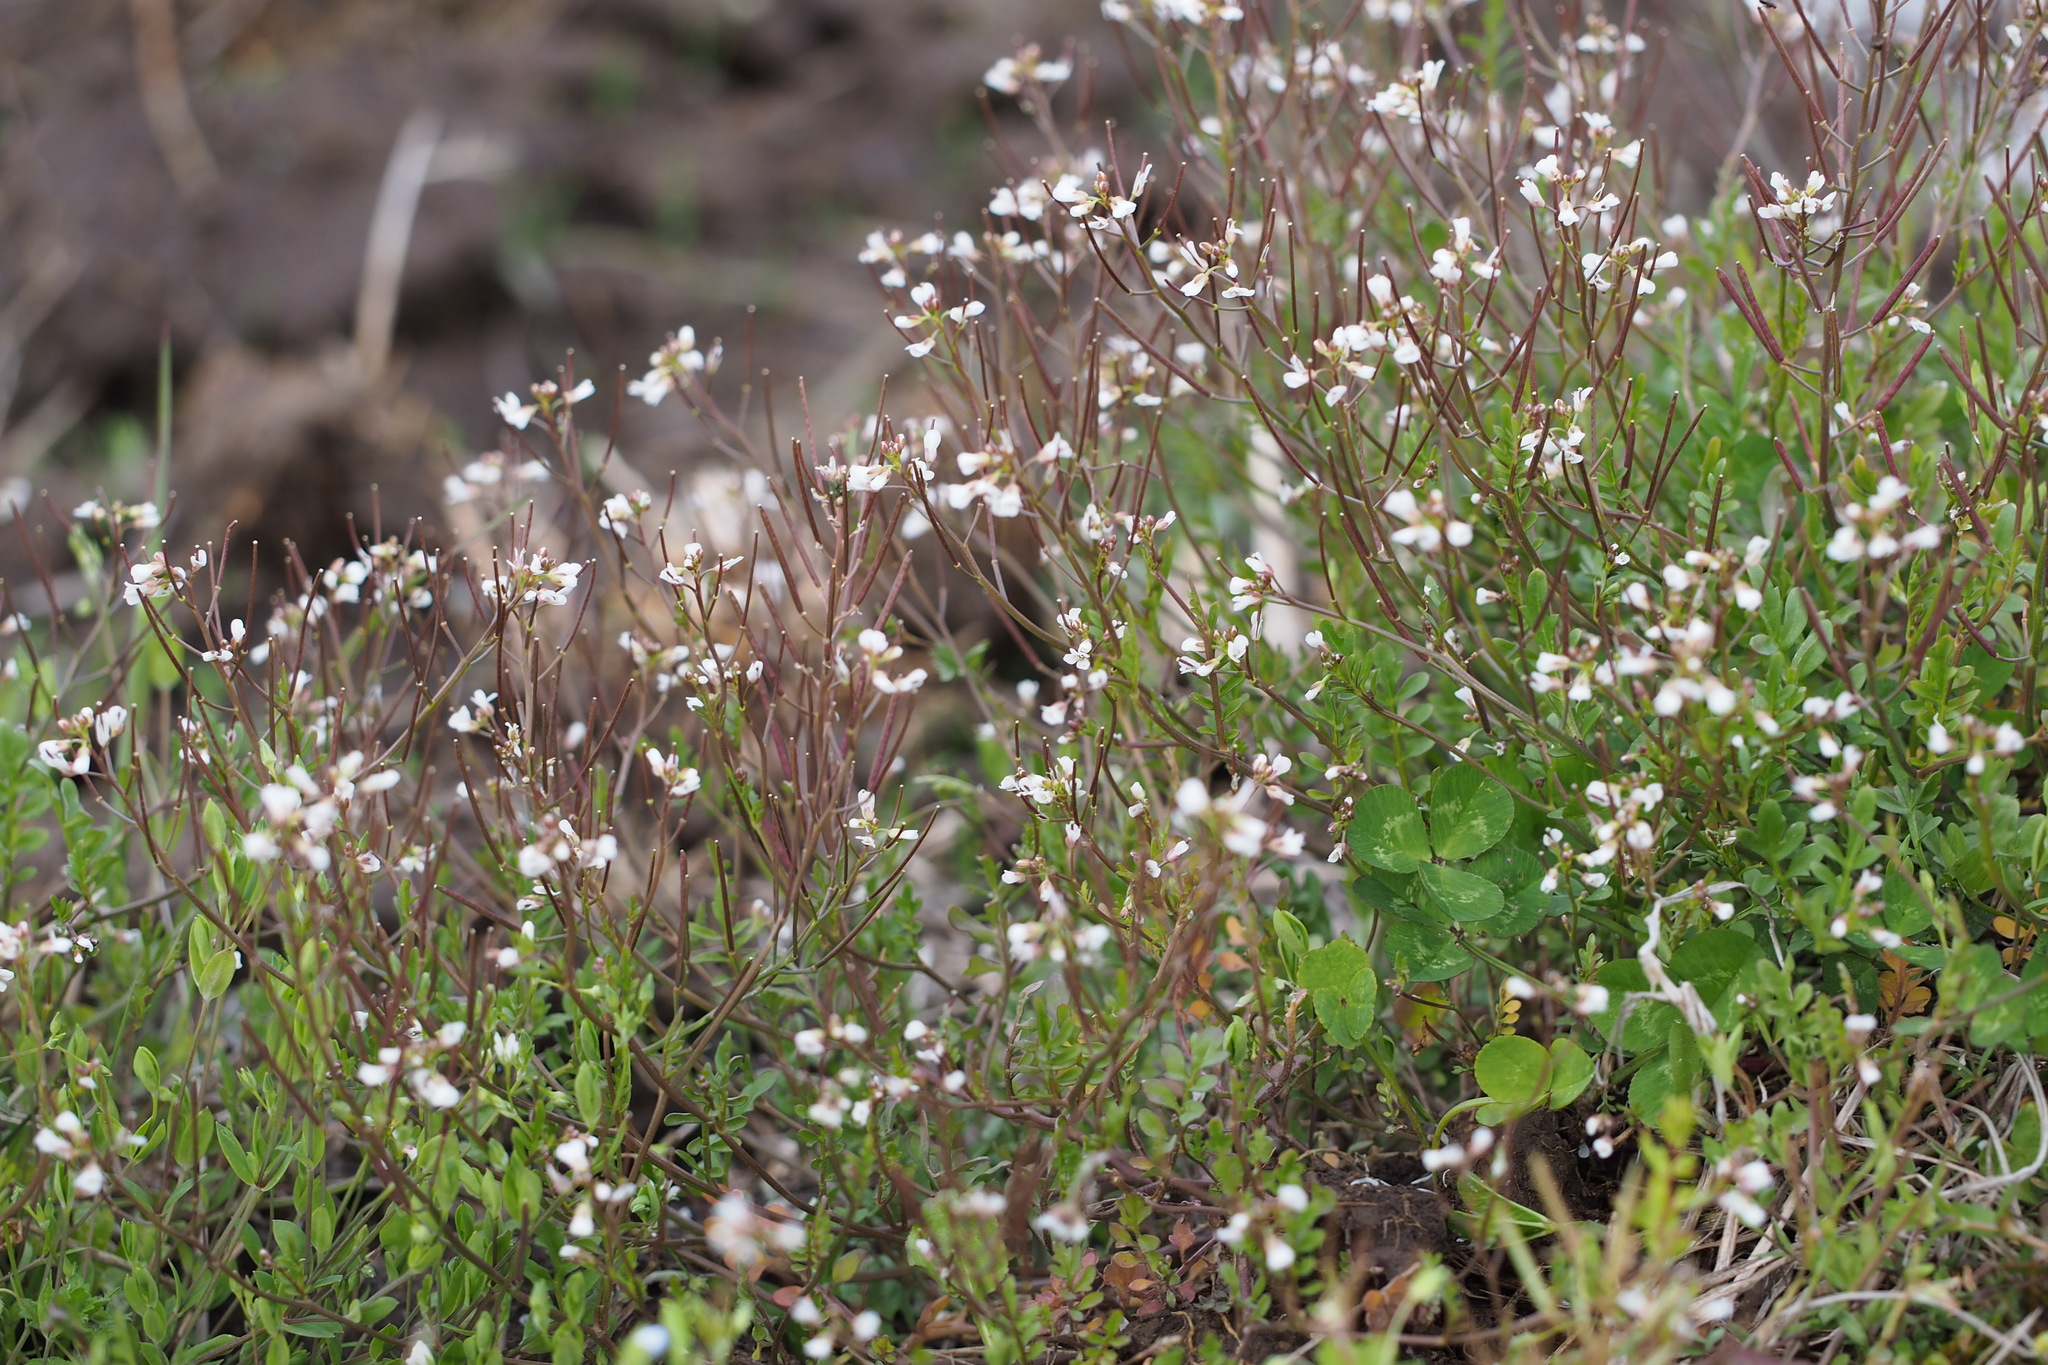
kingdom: Plantae
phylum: Tracheophyta
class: Magnoliopsida
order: Brassicales
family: Brassicaceae
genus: Cardamine
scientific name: Cardamine occulta
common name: Asian wavy bittercress
